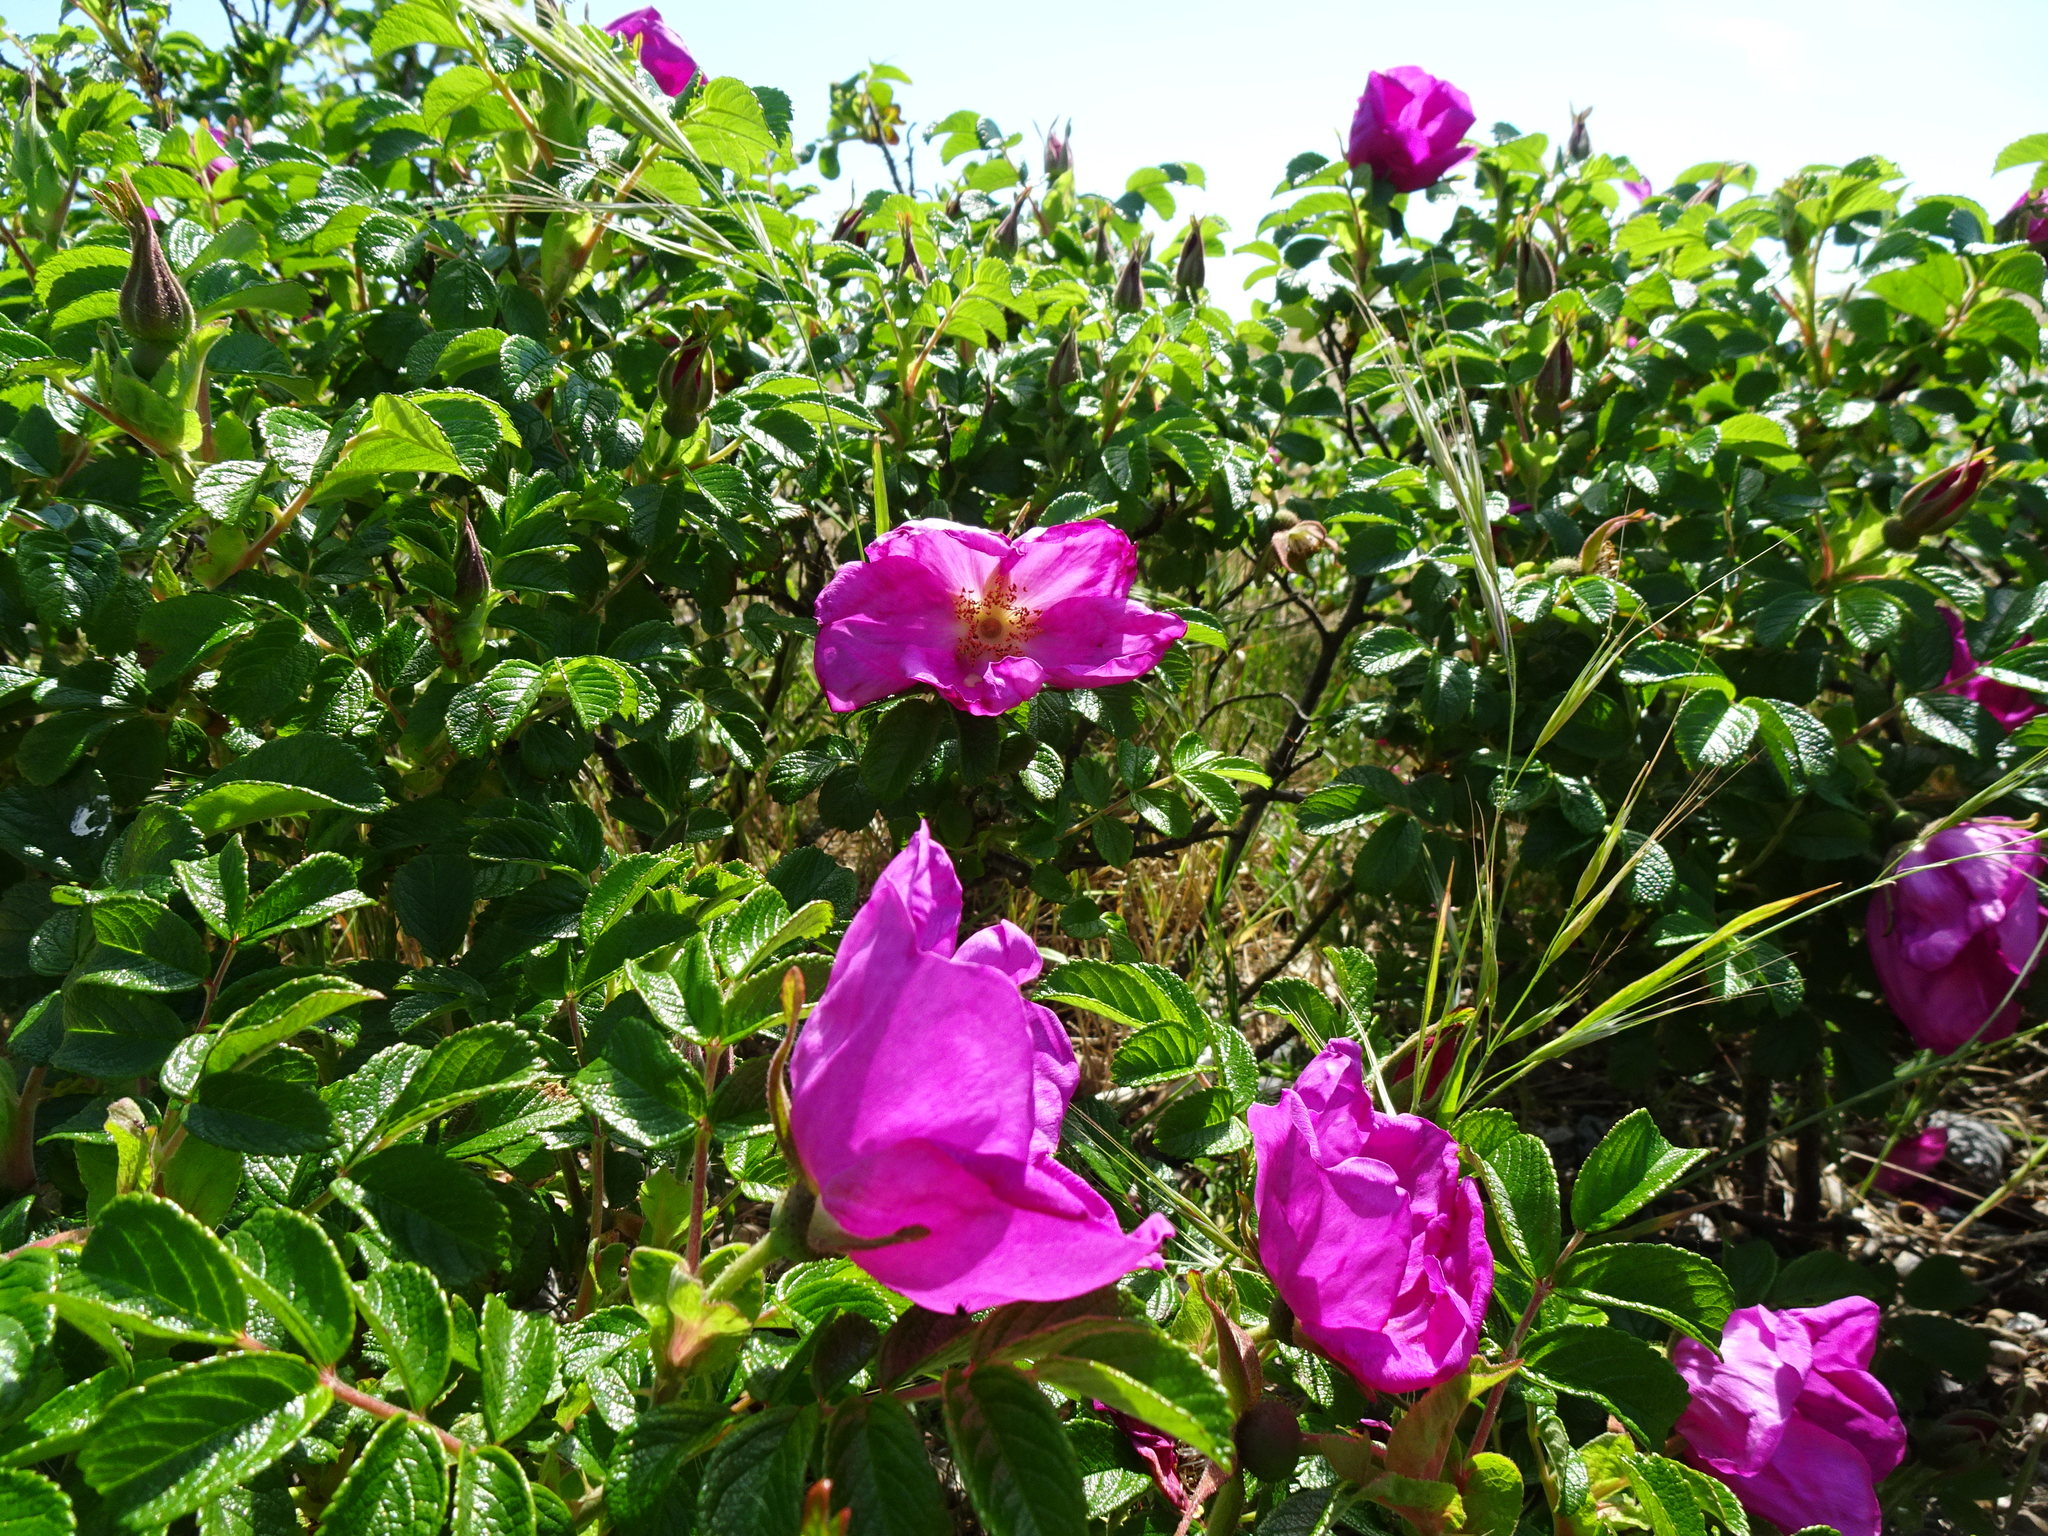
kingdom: Plantae
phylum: Tracheophyta
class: Magnoliopsida
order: Rosales
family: Rosaceae
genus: Rosa
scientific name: Rosa rugosa
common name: Japanese rose
